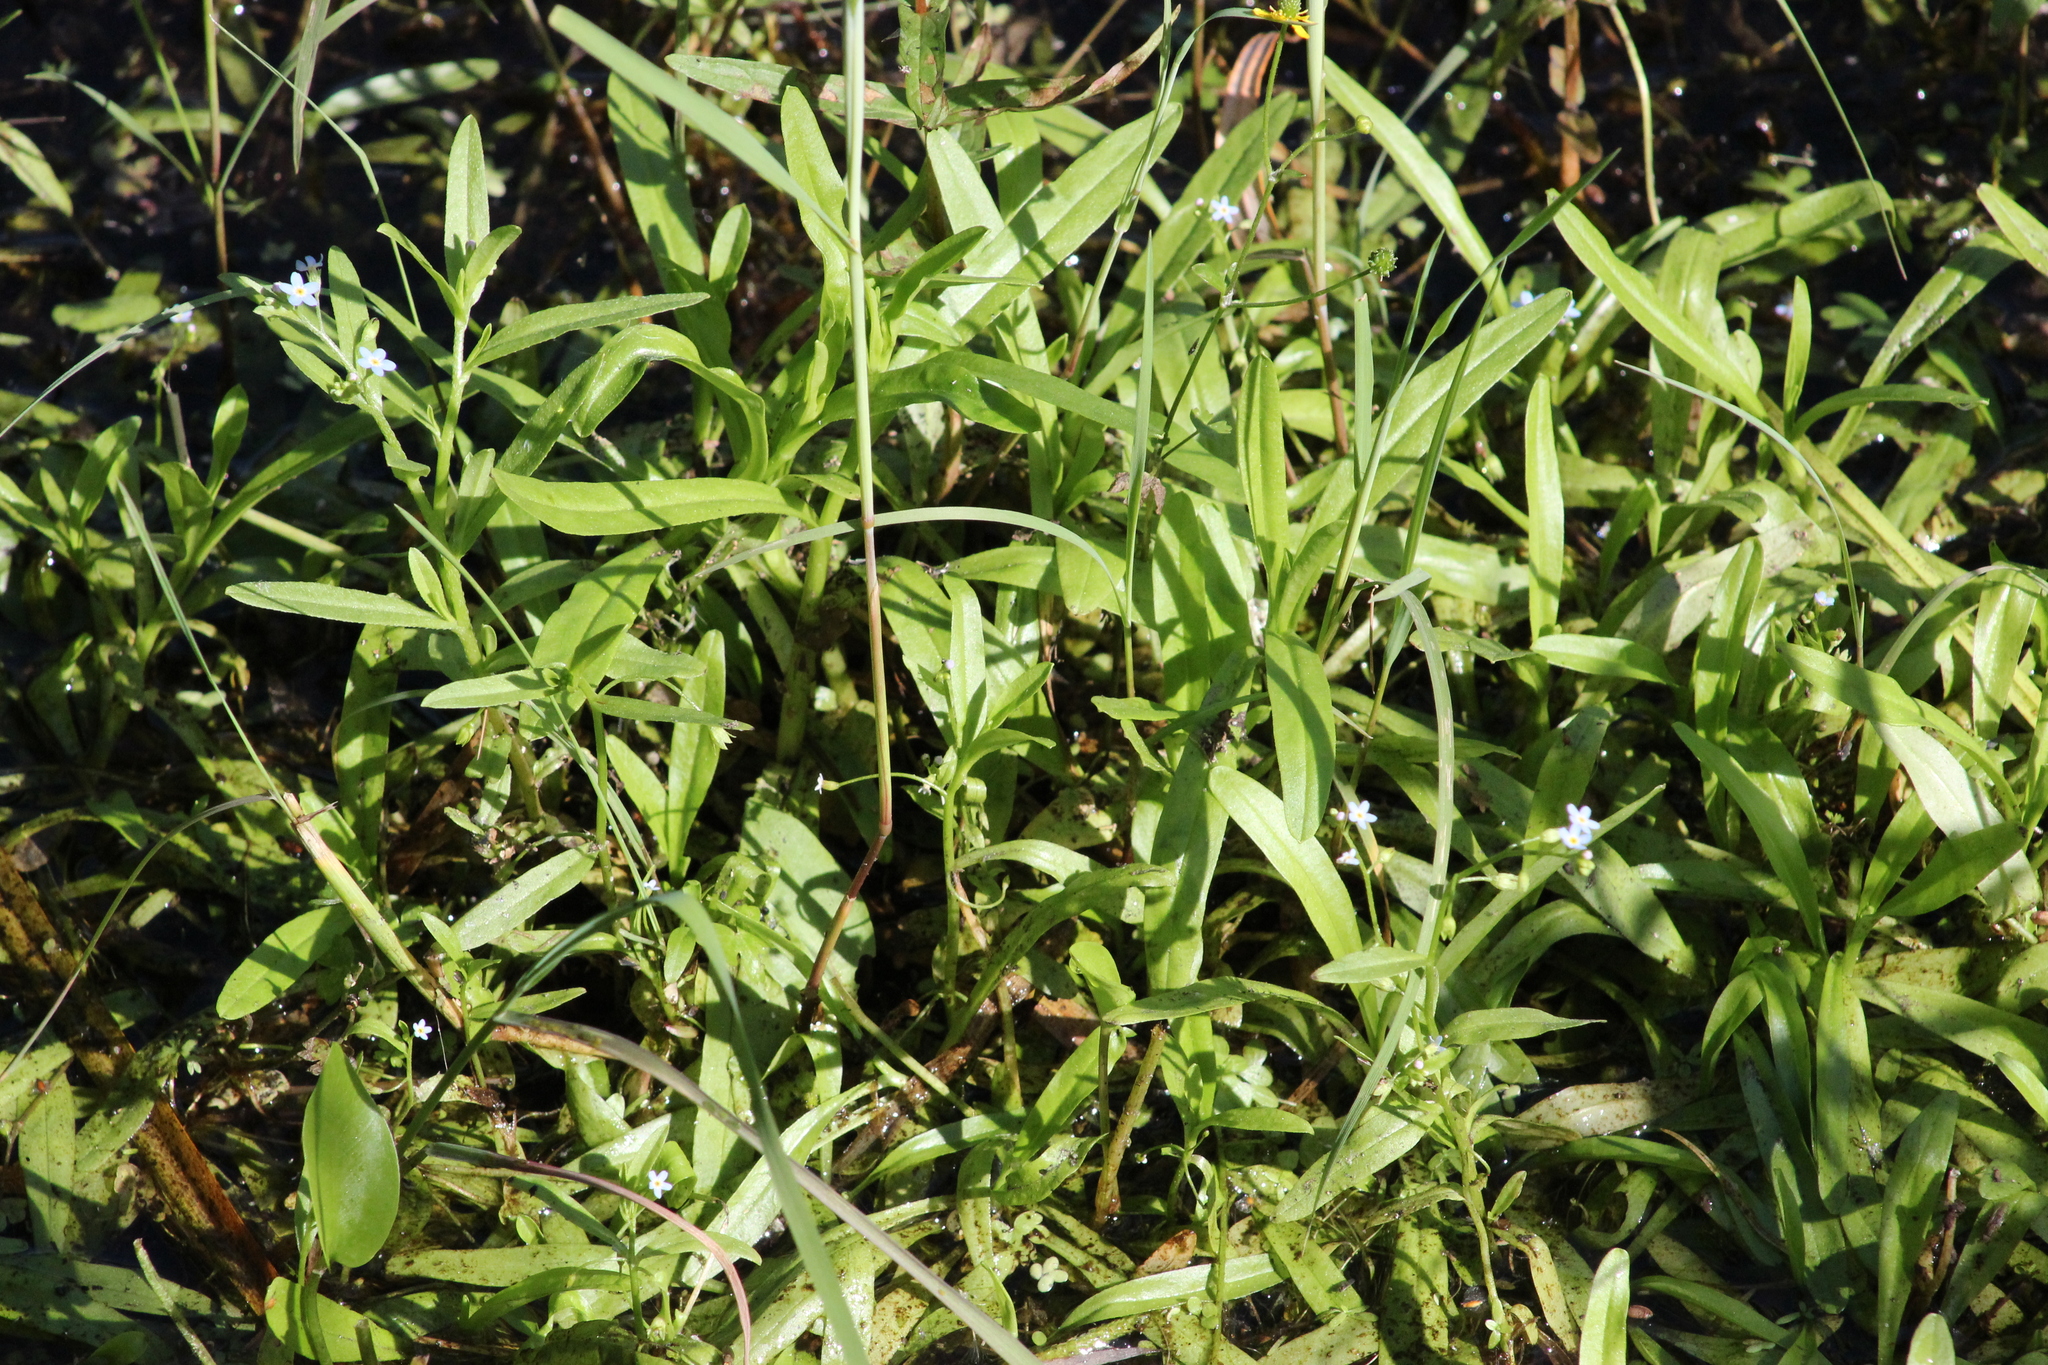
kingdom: Plantae
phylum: Tracheophyta
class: Magnoliopsida
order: Boraginales
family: Boraginaceae
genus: Myosotis
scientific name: Myosotis scorpioides
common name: Water forget-me-not
